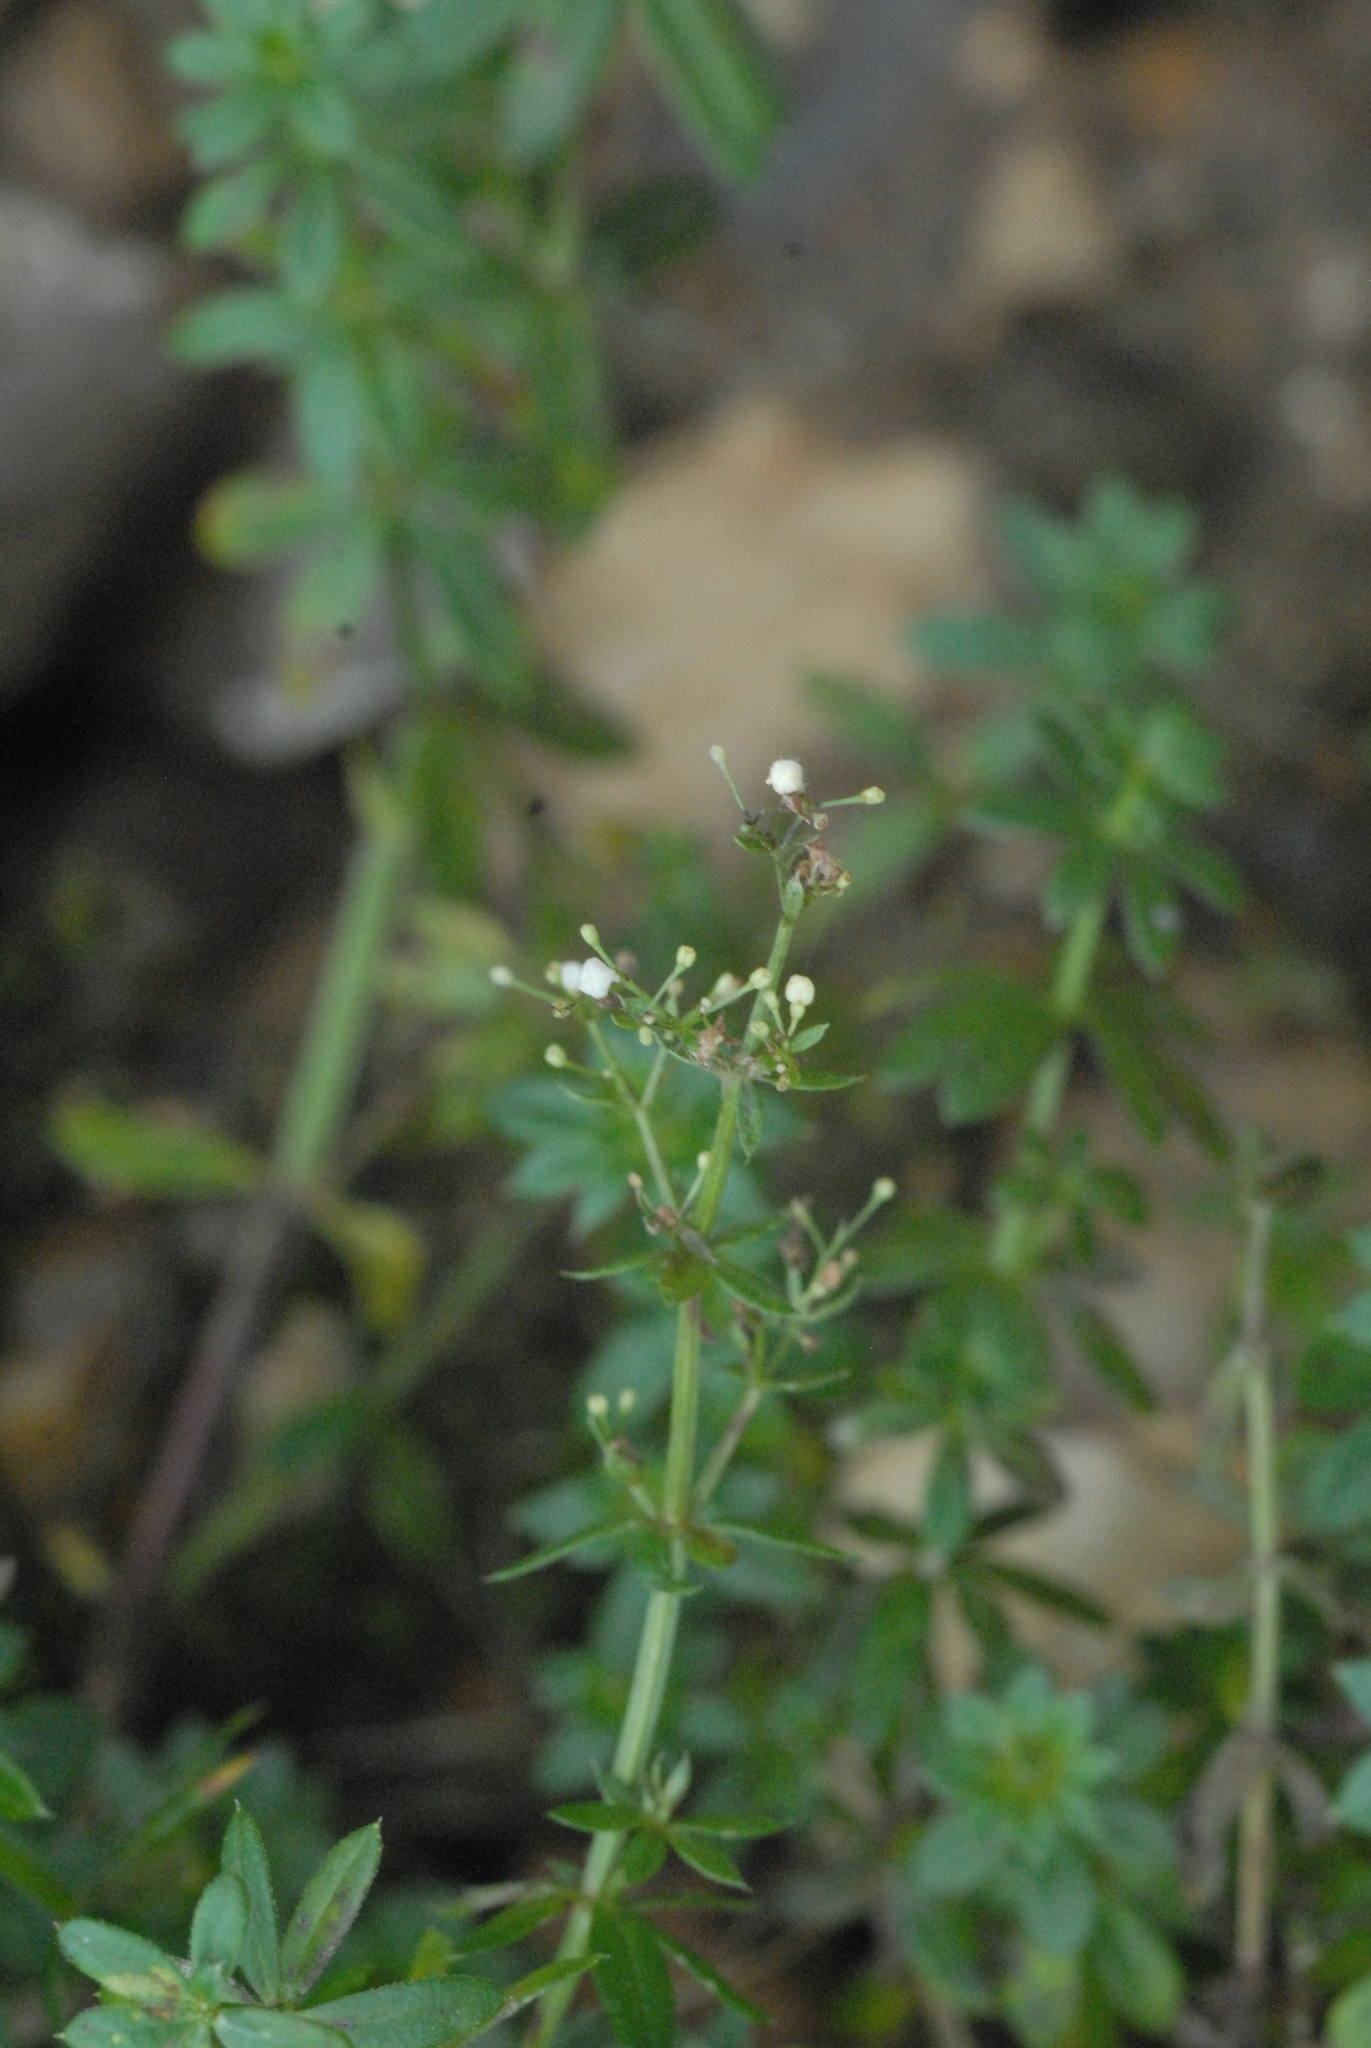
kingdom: Plantae
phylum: Tracheophyta
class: Magnoliopsida
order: Gentianales
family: Rubiaceae
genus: Galium
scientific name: Galium mollugo
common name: Hedge bedstraw
